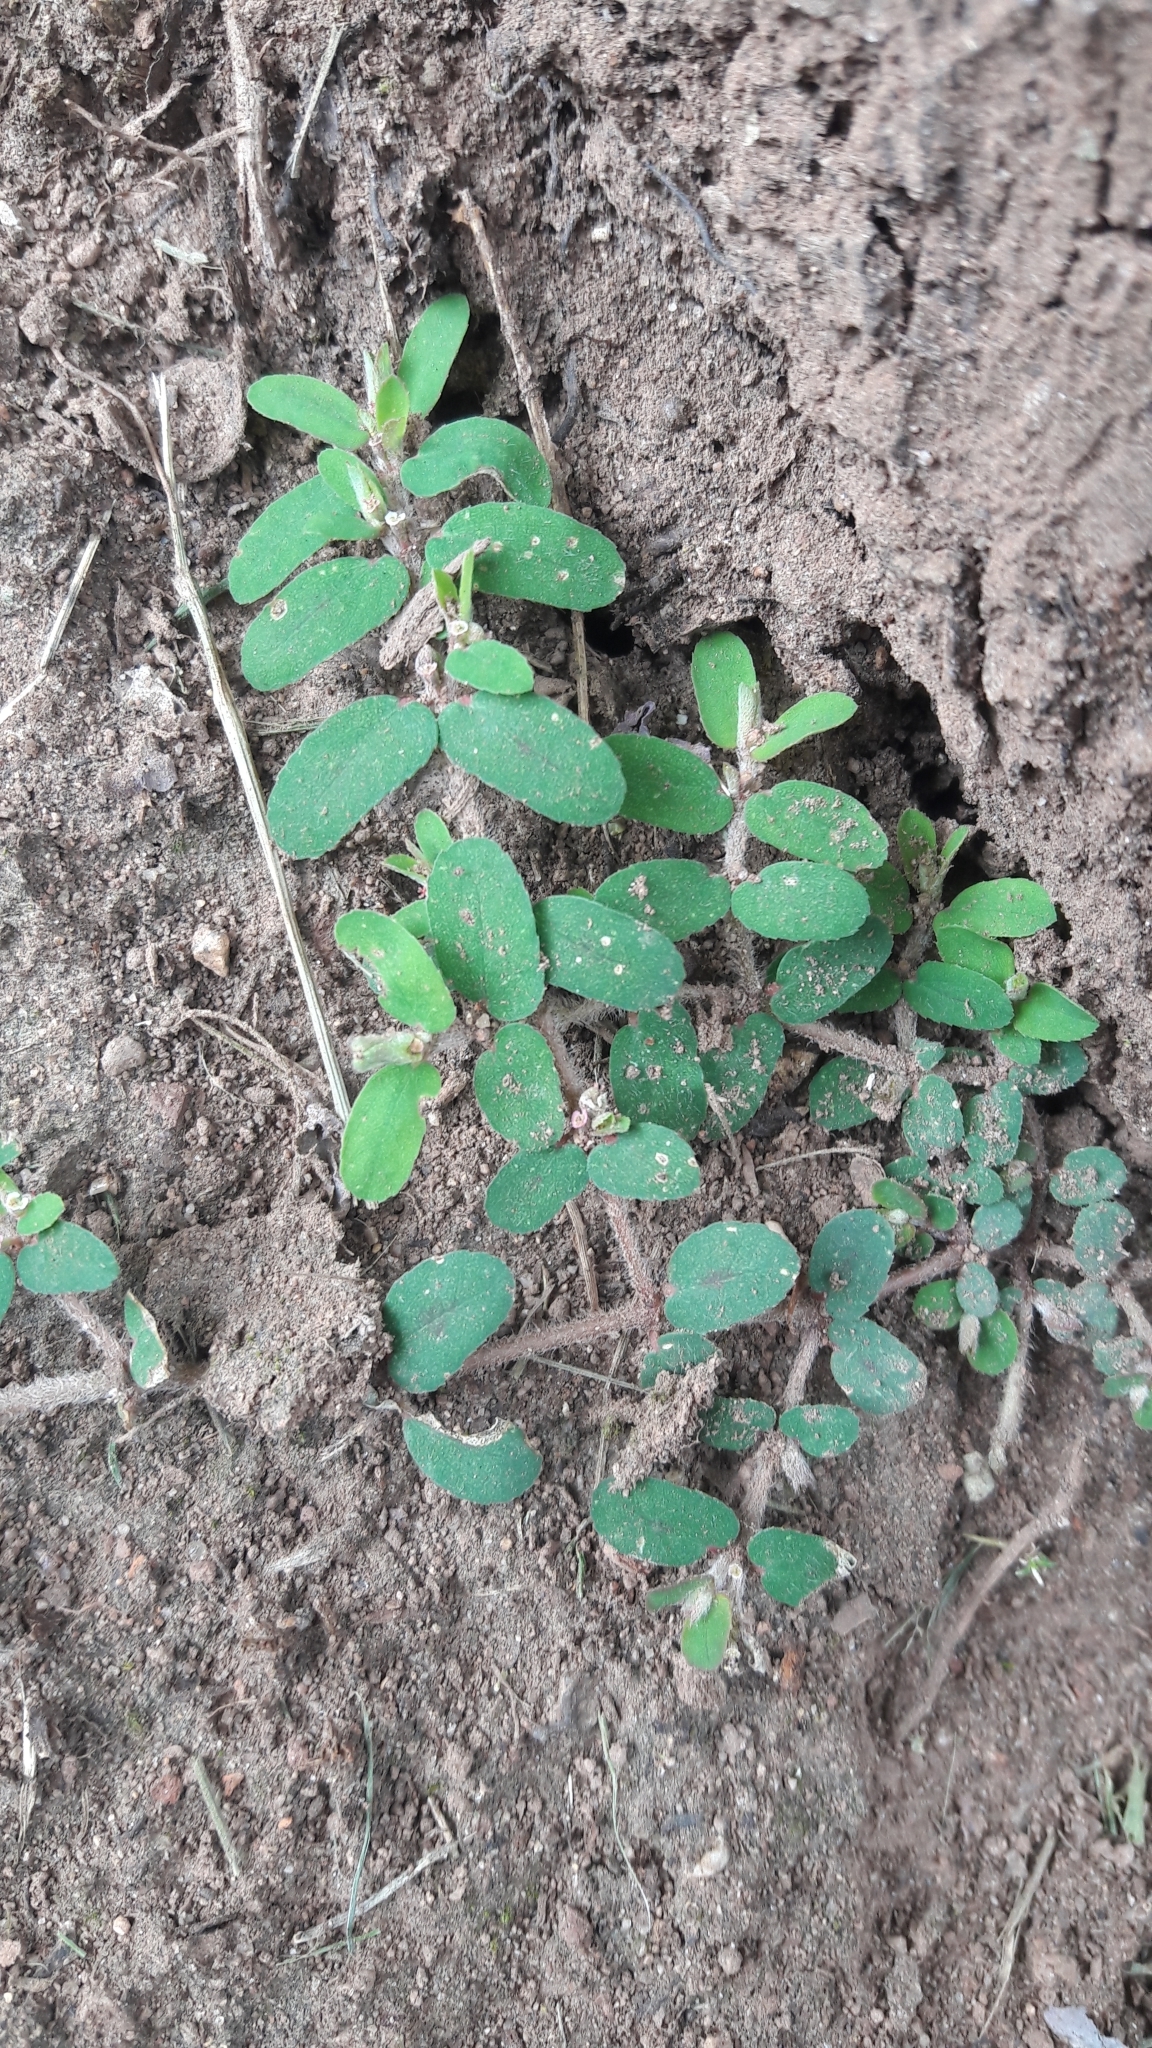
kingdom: Plantae
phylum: Tracheophyta
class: Magnoliopsida
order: Malpighiales
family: Euphorbiaceae
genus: Euphorbia
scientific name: Euphorbia maculata
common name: Spotted spurge
